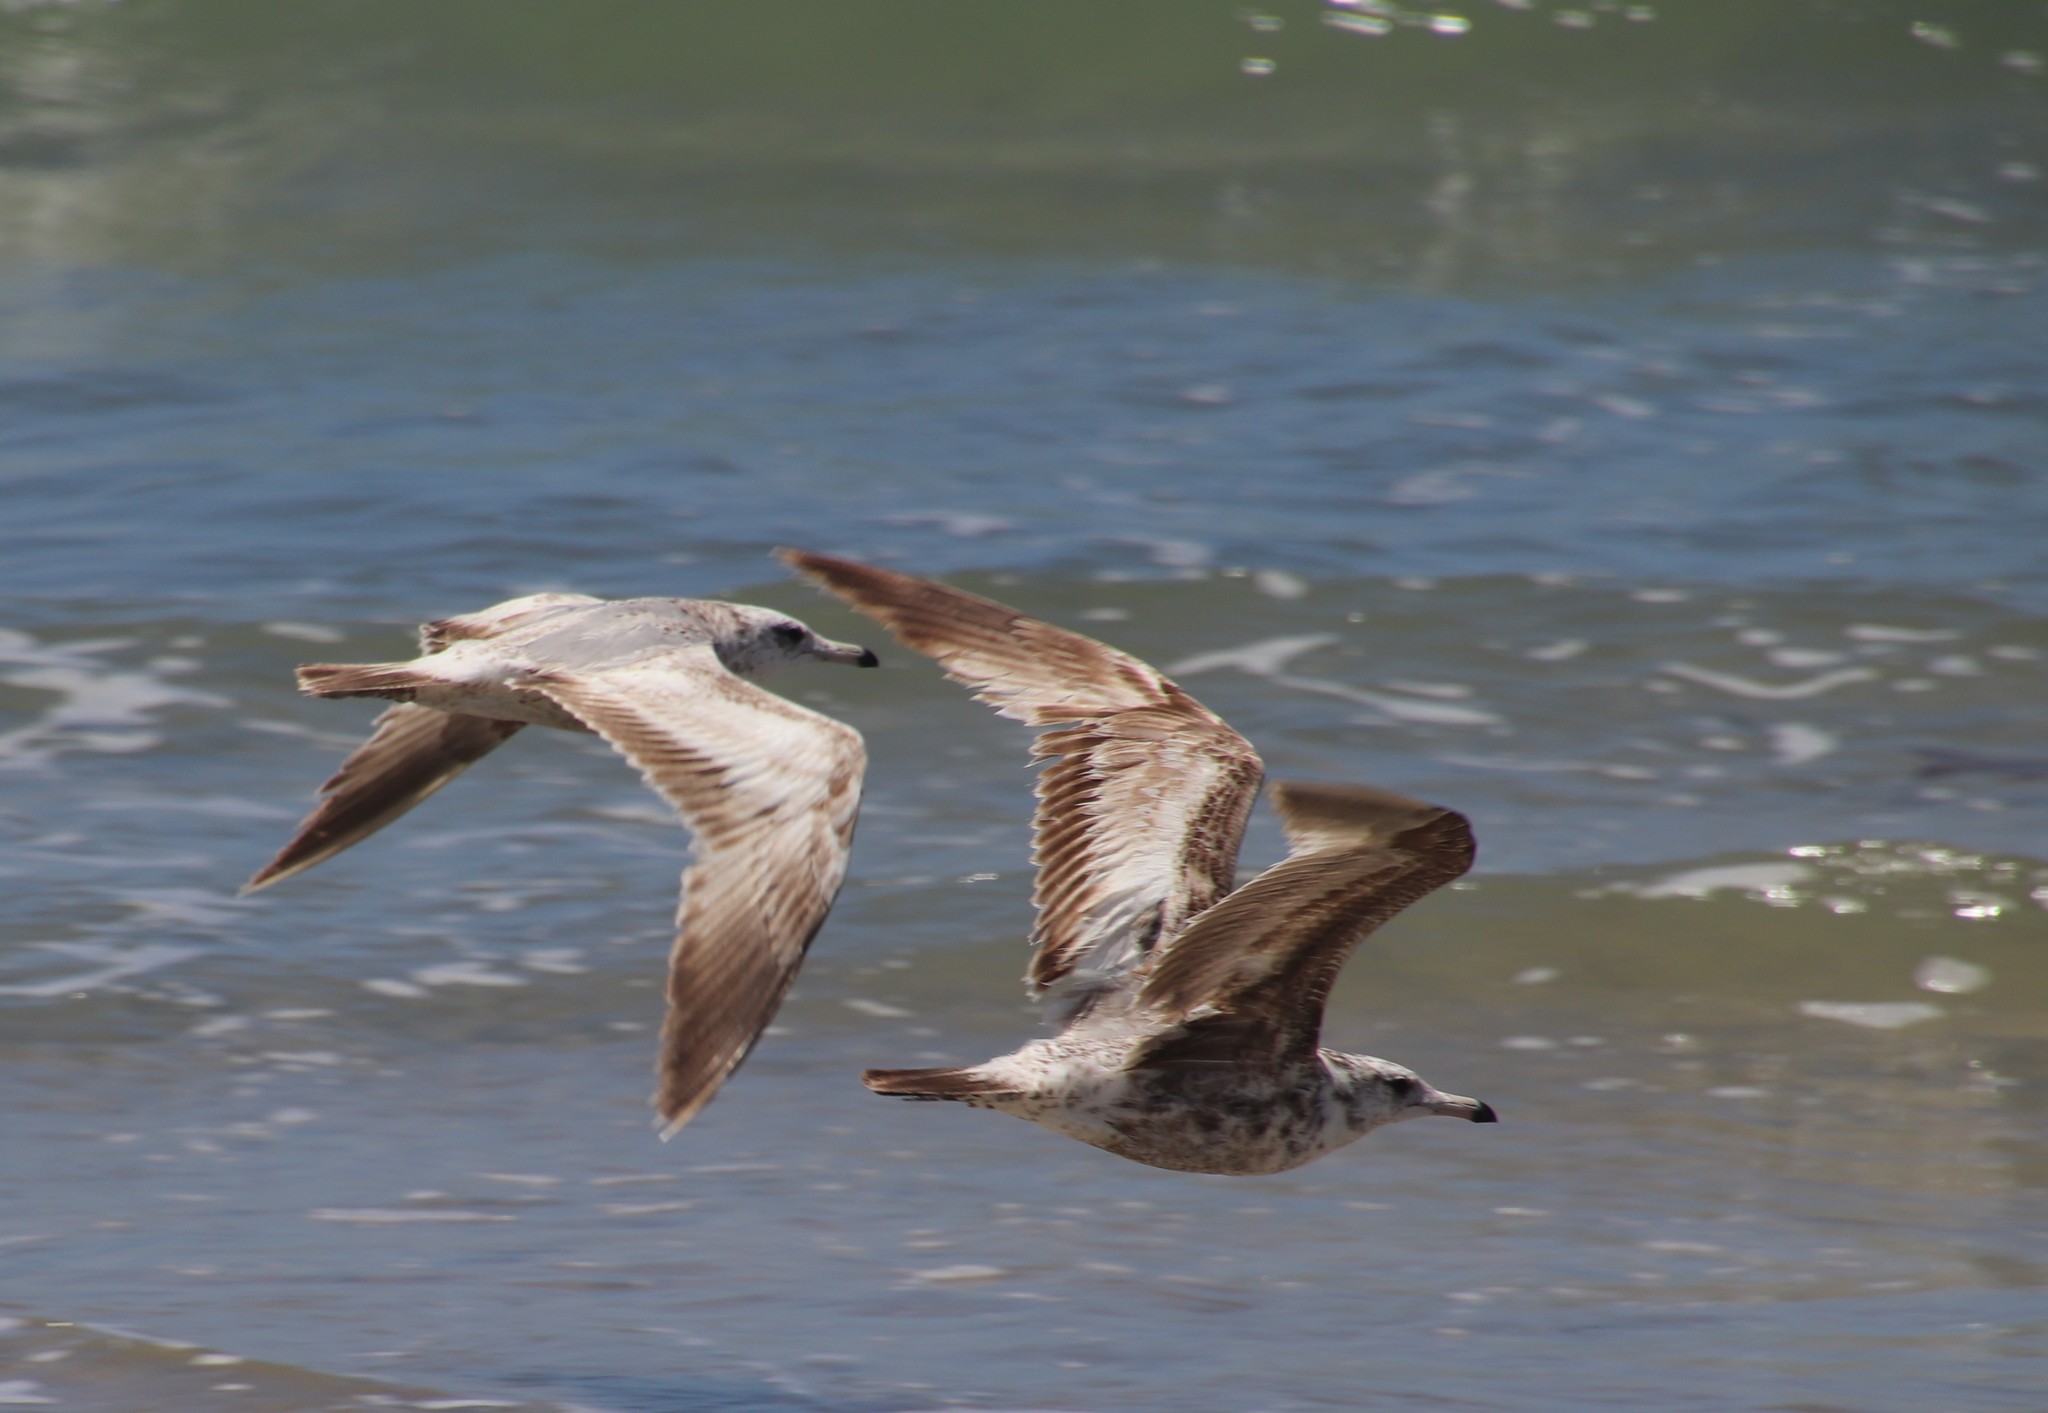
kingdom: Animalia
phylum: Chordata
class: Aves
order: Charadriiformes
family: Laridae
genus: Larus
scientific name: Larus californicus
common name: California gull
